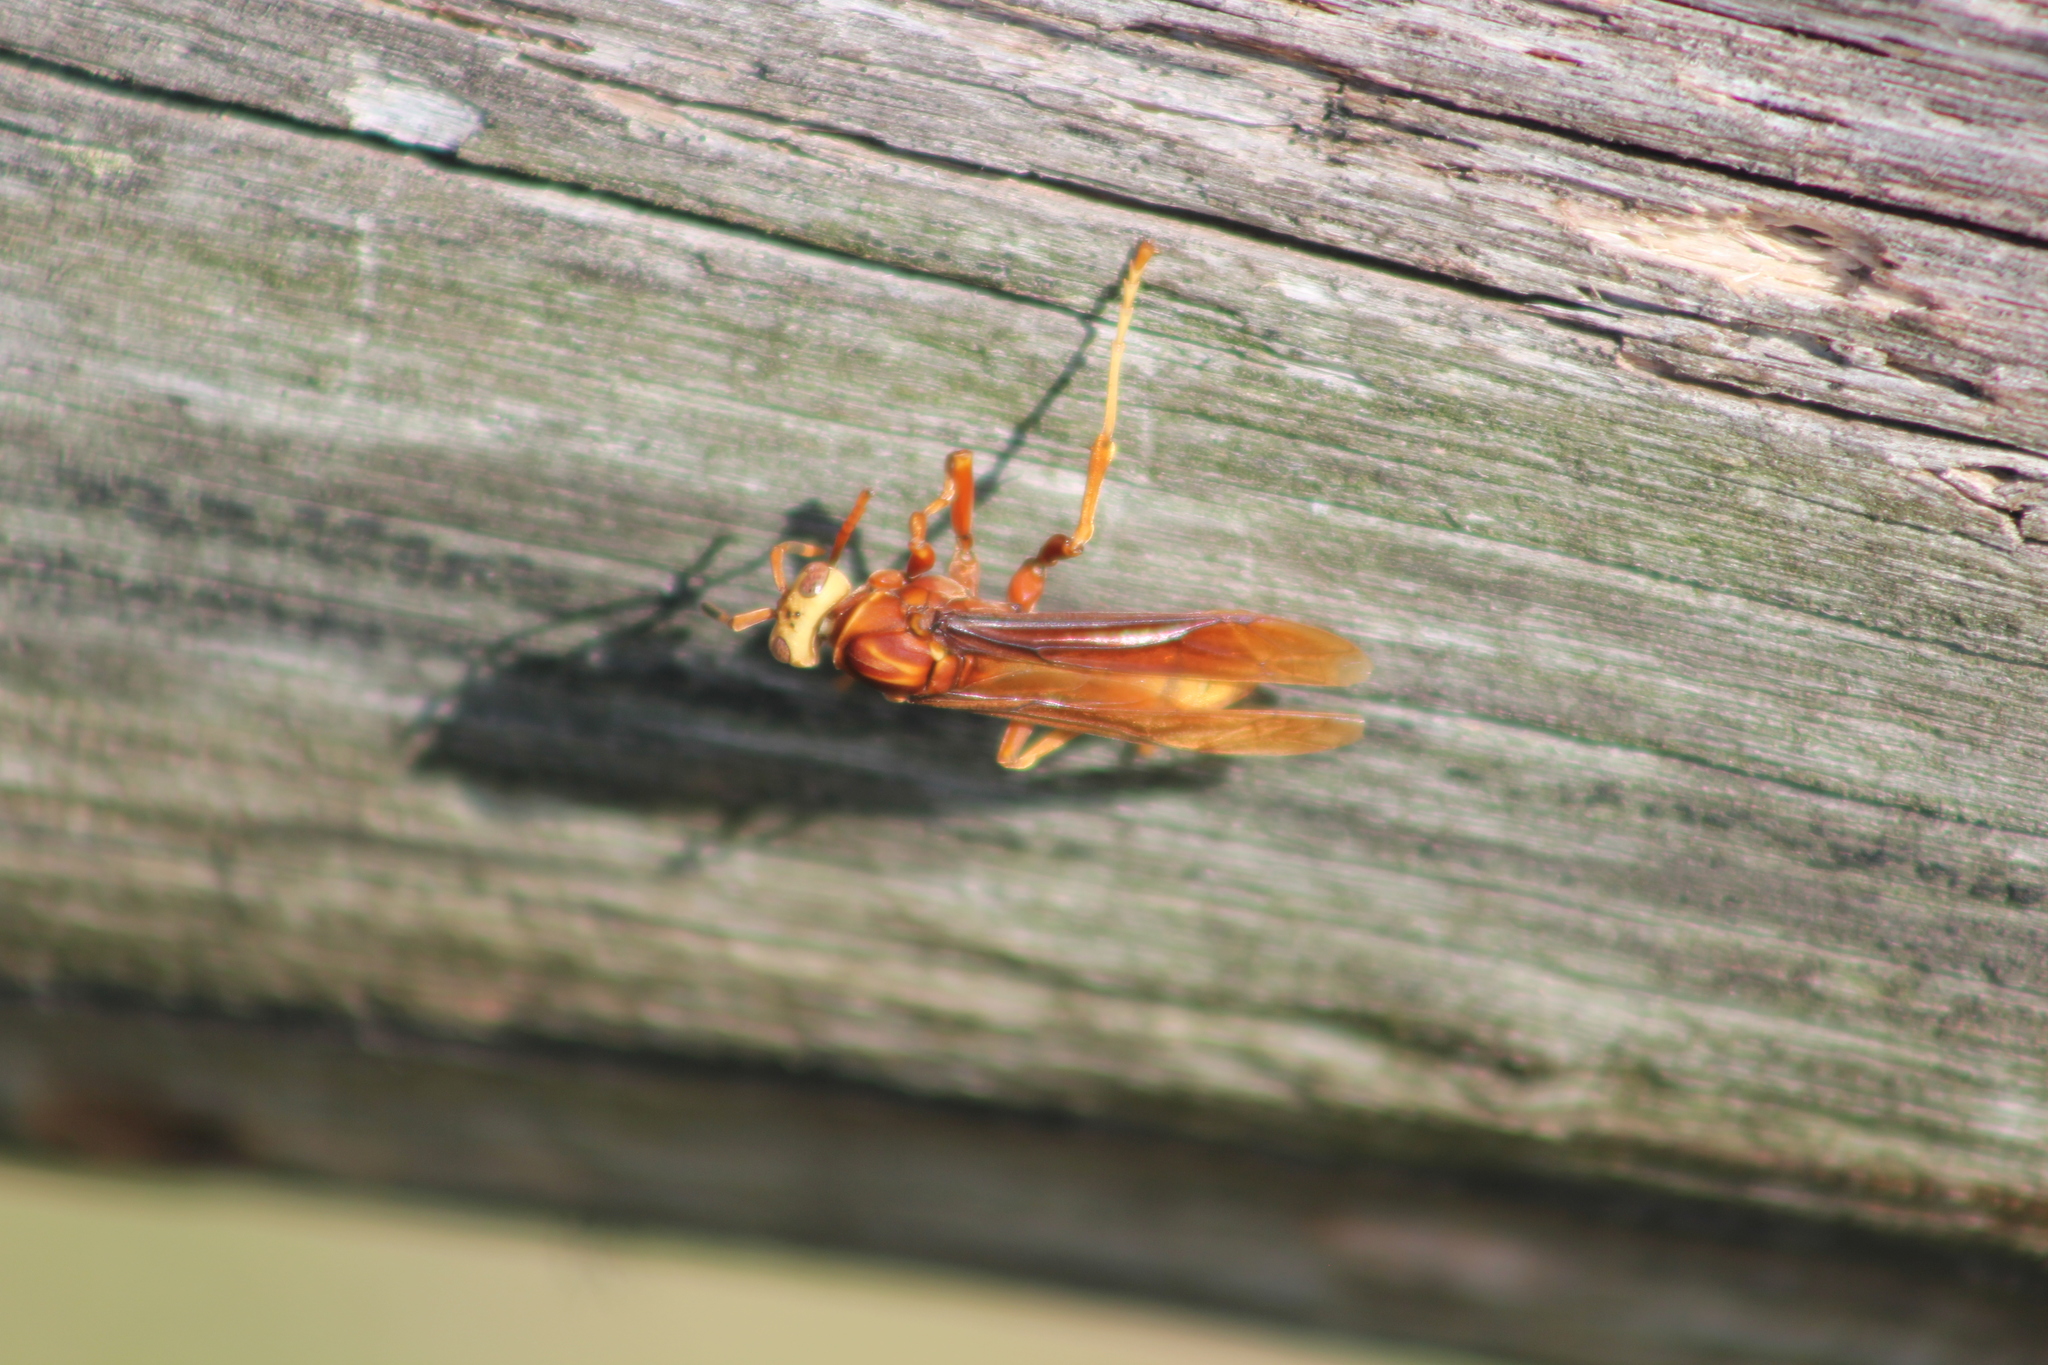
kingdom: Animalia
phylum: Arthropoda
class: Insecta
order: Hymenoptera
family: Eumenidae
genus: Polistes
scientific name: Polistes cavapyta
